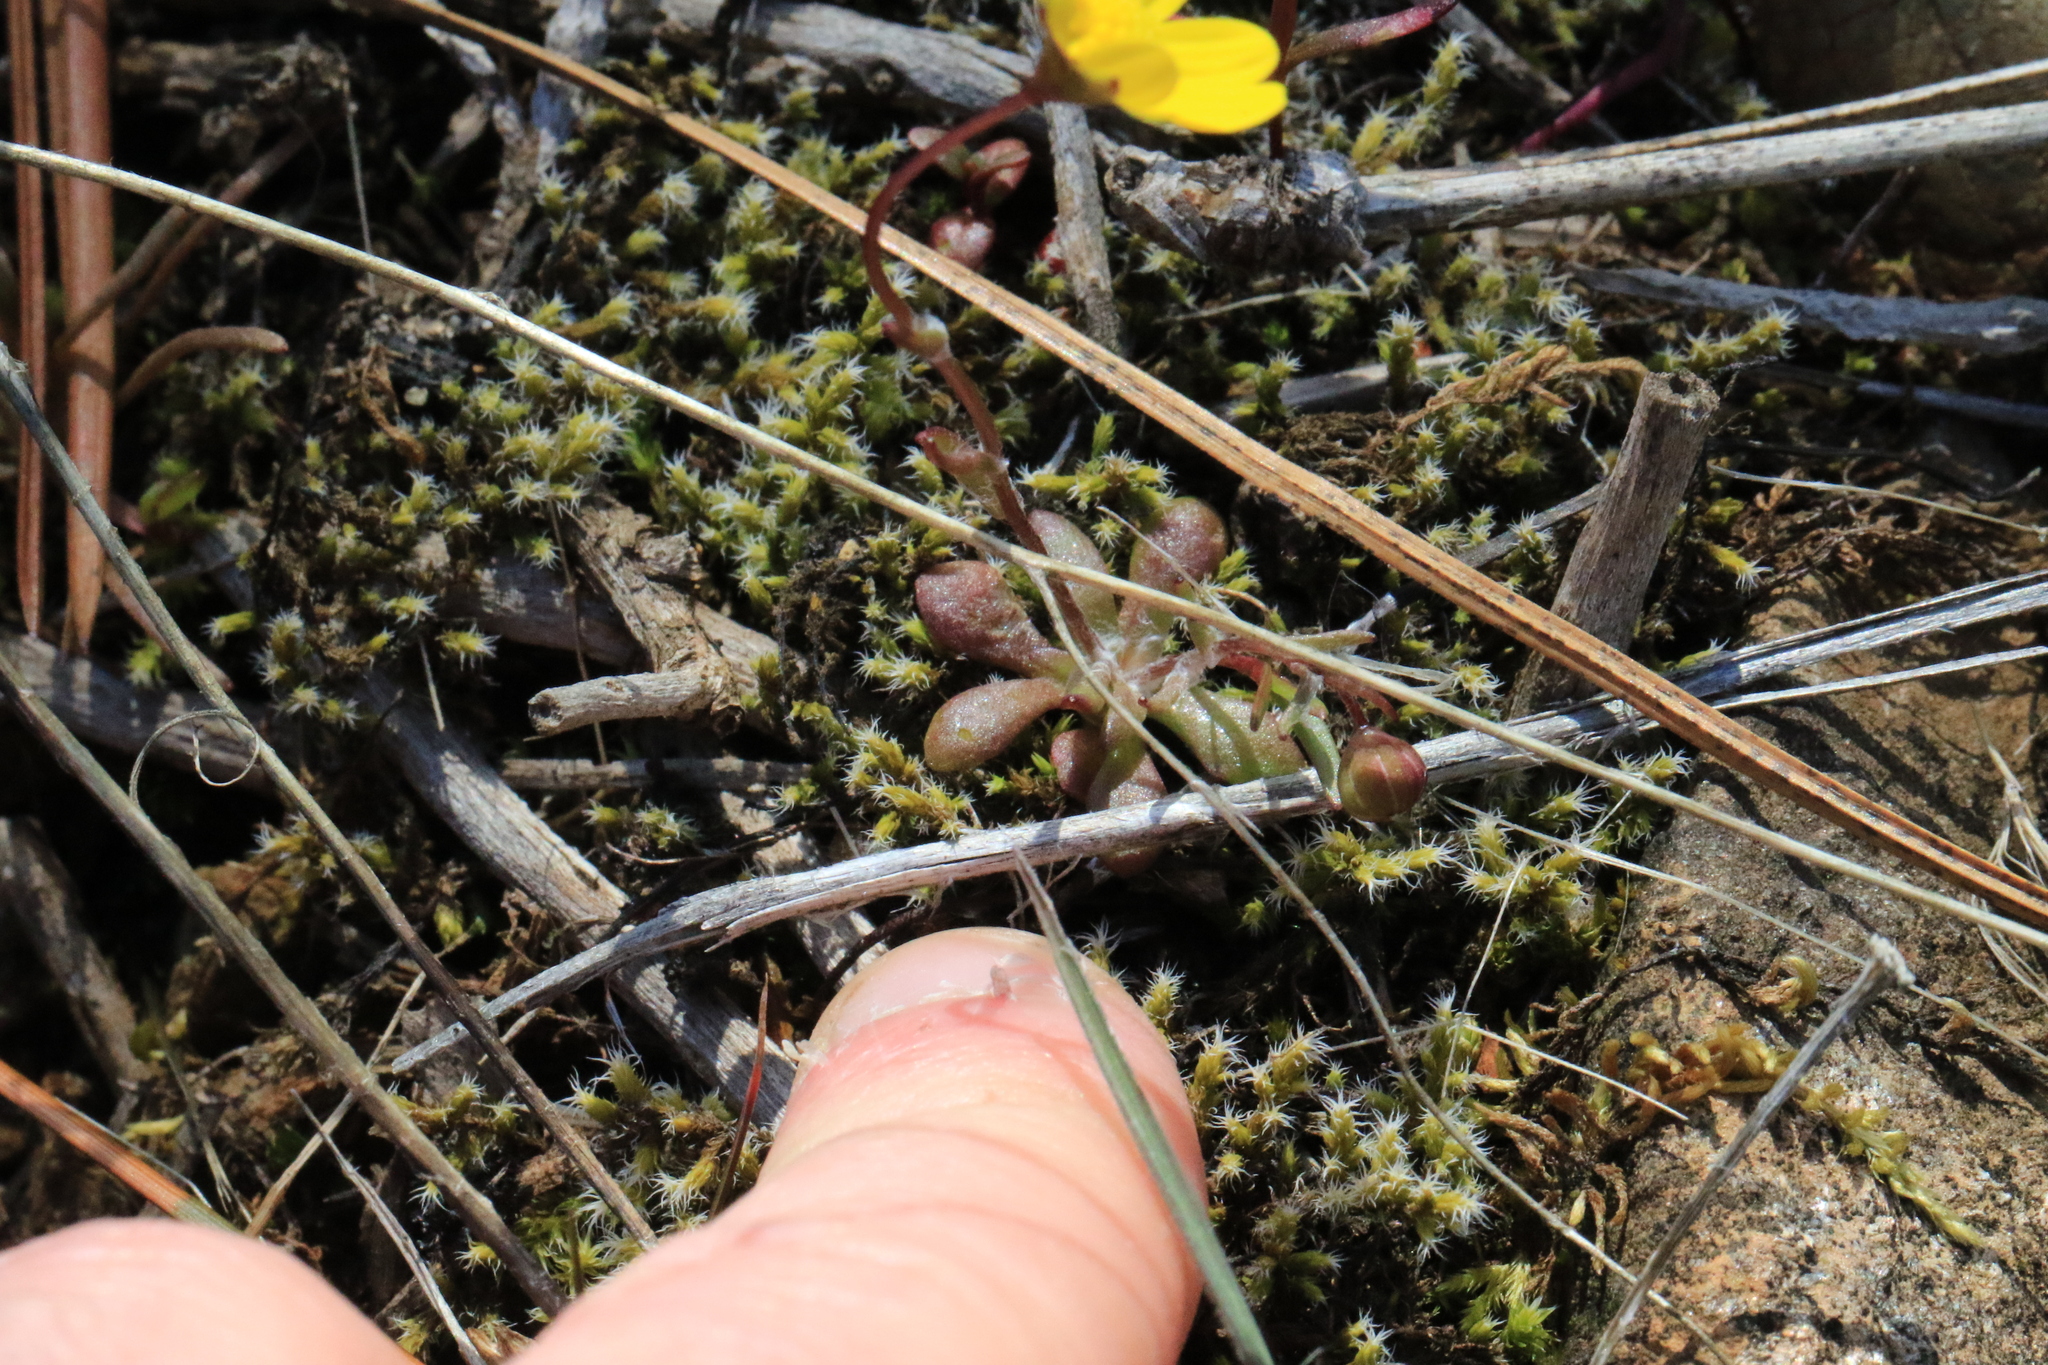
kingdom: Plantae
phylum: Tracheophyta
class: Magnoliopsida
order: Asterales
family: Asteraceae
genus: Crocidium
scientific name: Crocidium multicaule
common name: Common spring gold
